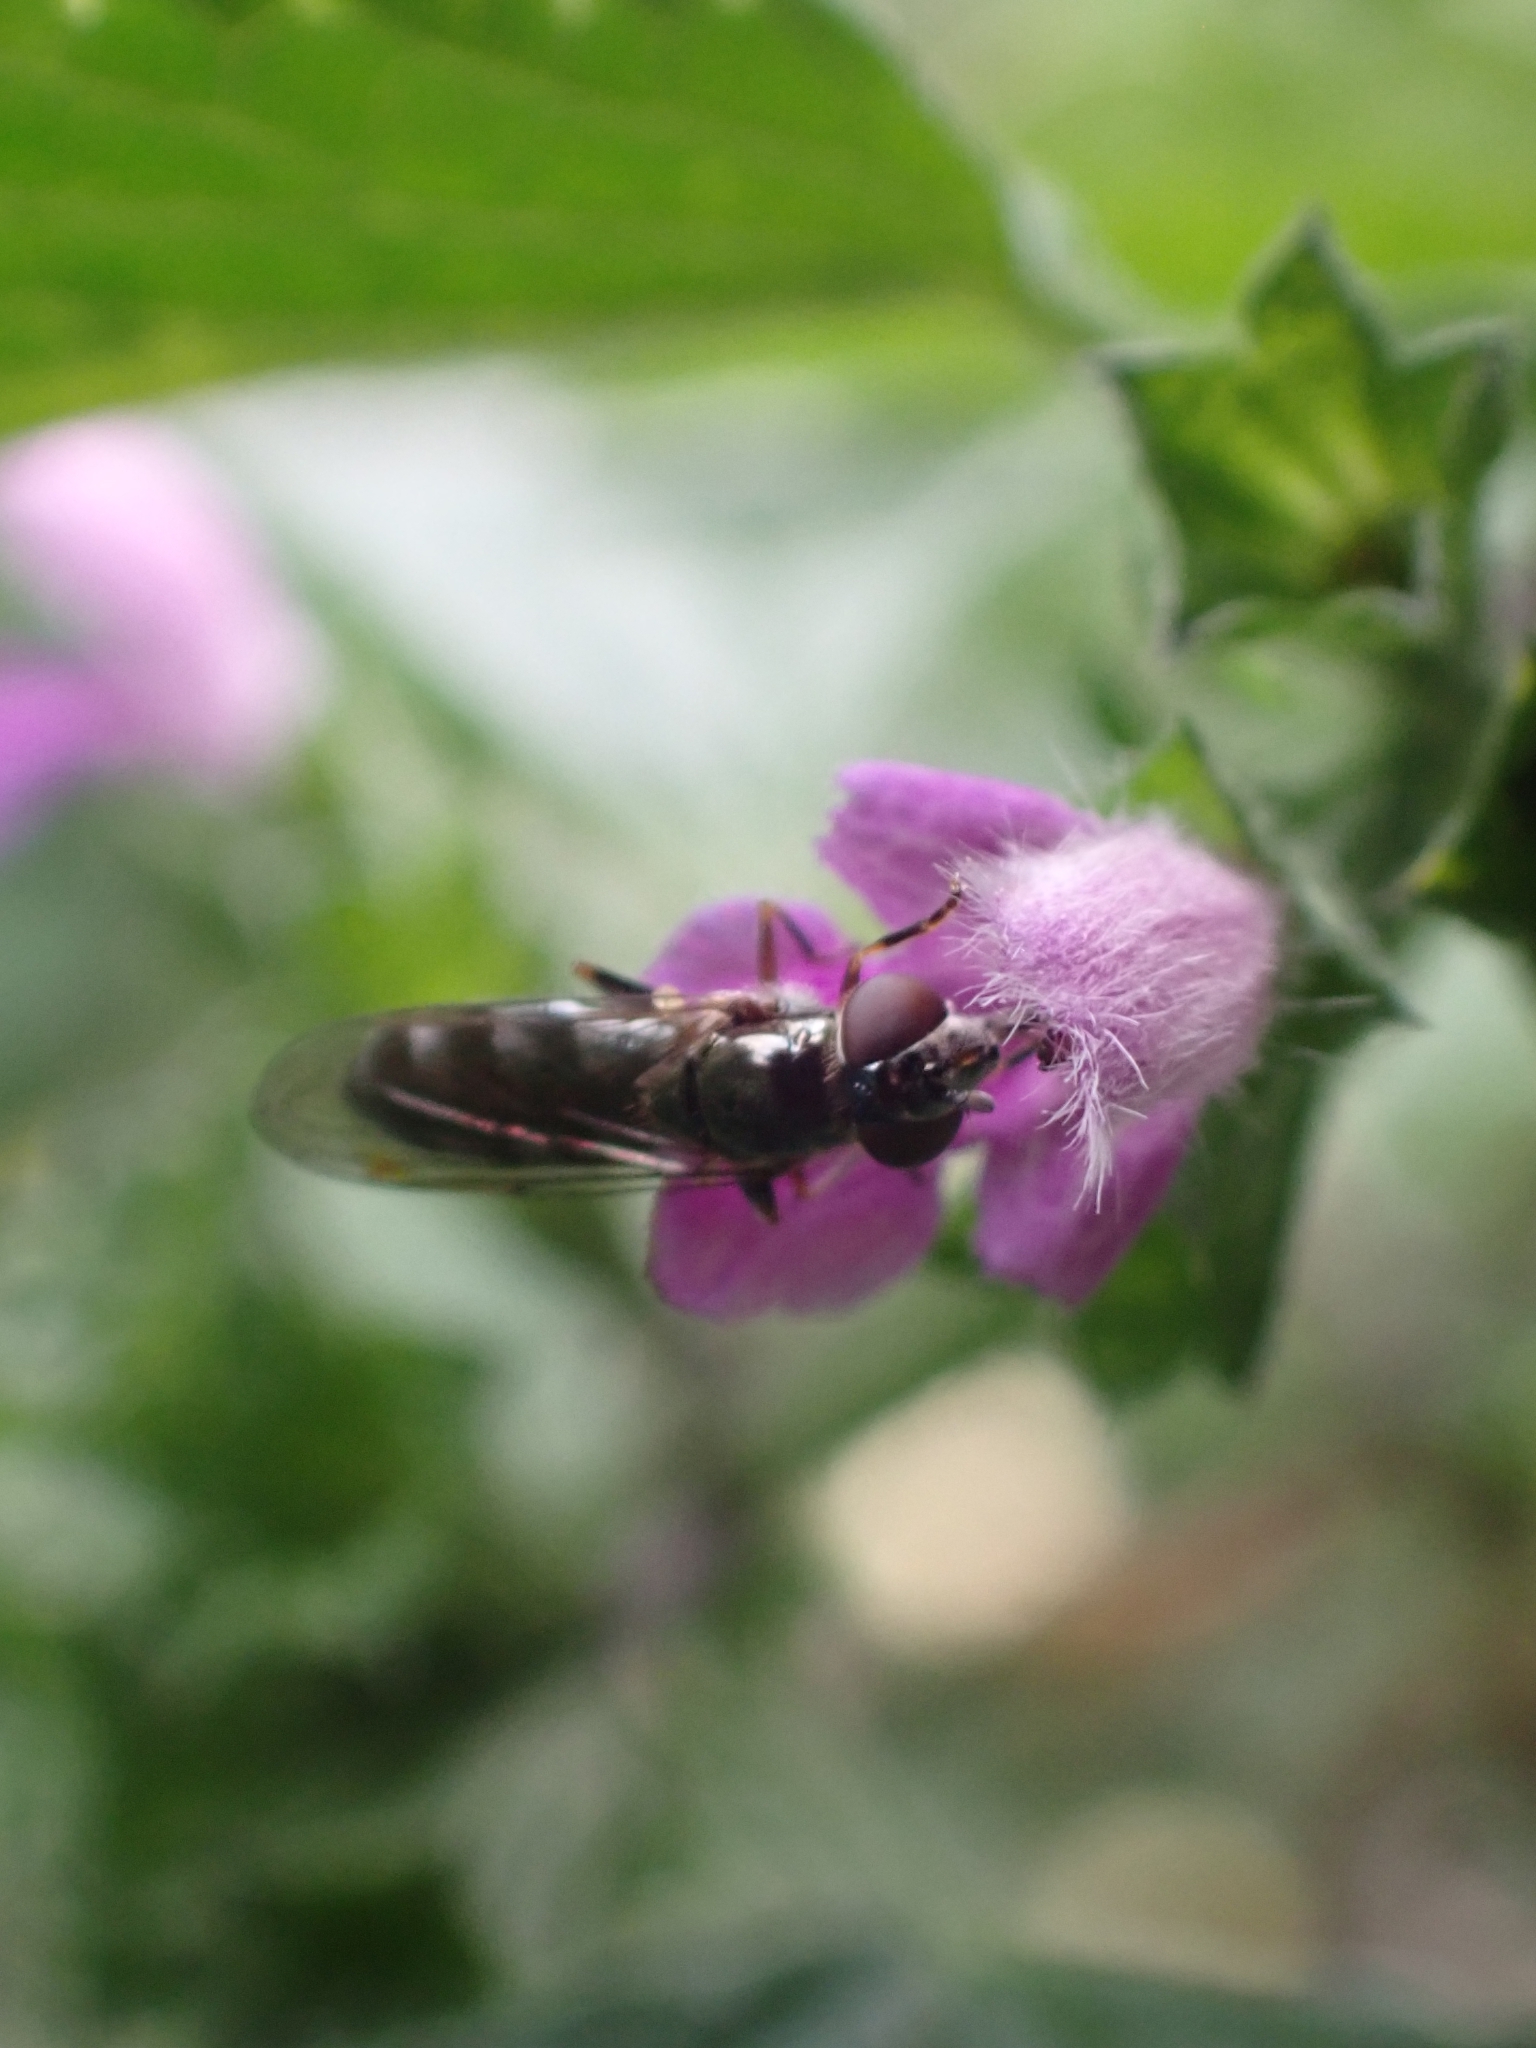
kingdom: Animalia
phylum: Arthropoda
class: Insecta
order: Diptera
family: Syrphidae
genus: Platycheirus
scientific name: Platycheirus albimanus
